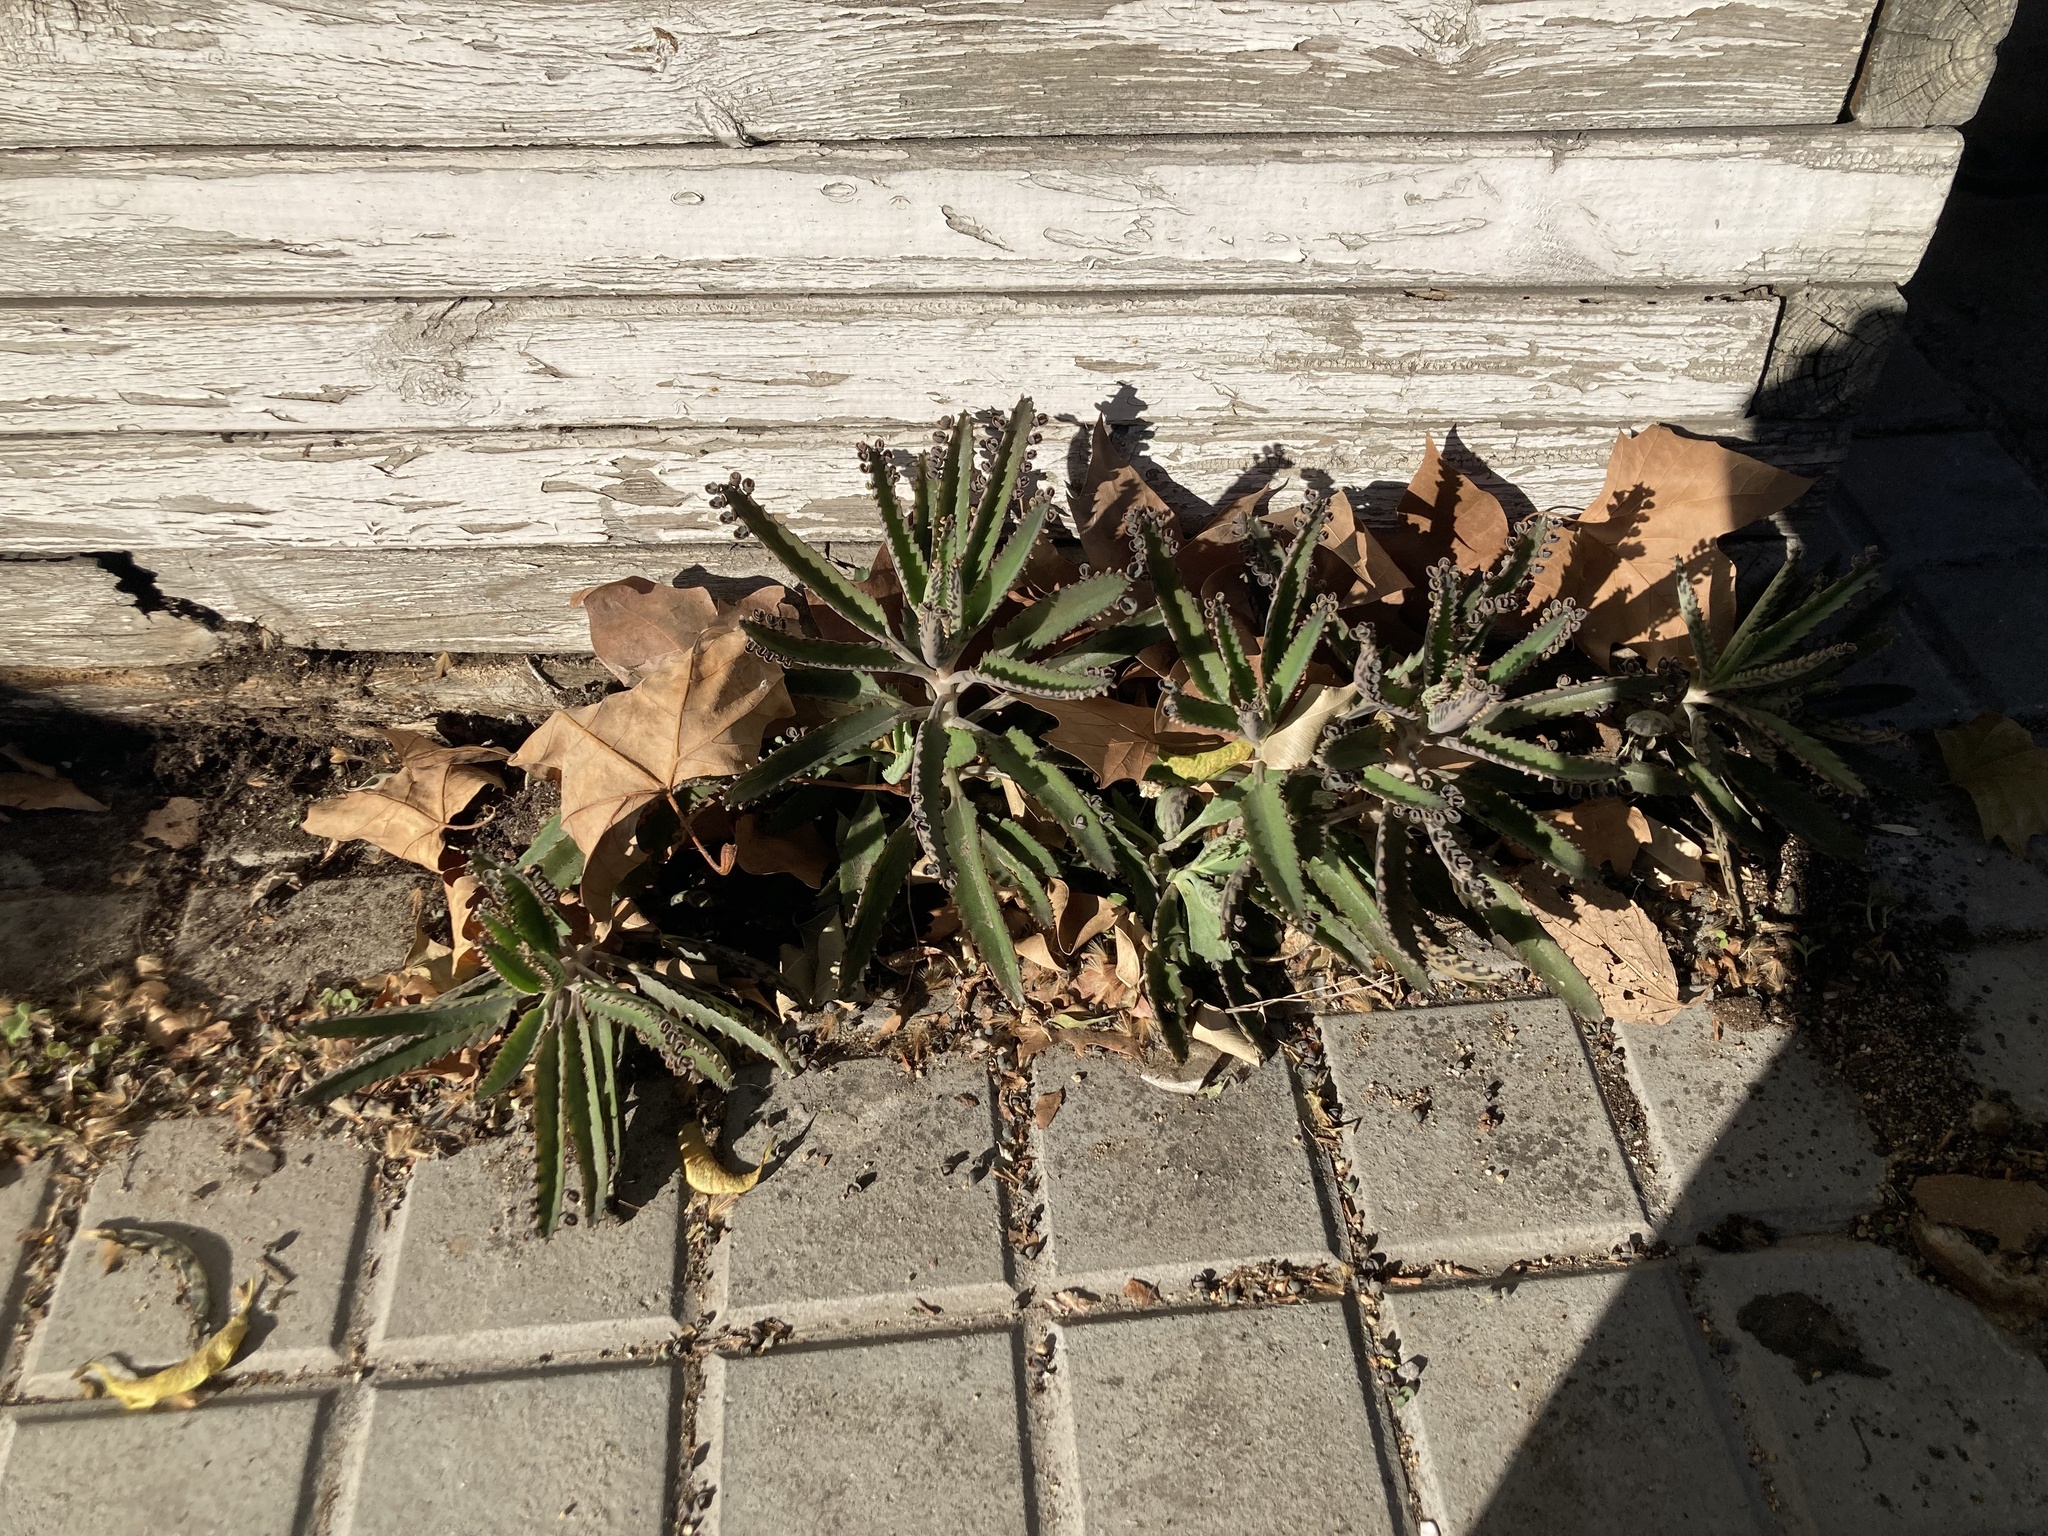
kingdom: Plantae
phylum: Tracheophyta
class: Magnoliopsida
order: Saxifragales
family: Crassulaceae
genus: Kalanchoe
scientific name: Kalanchoe houghtonii
